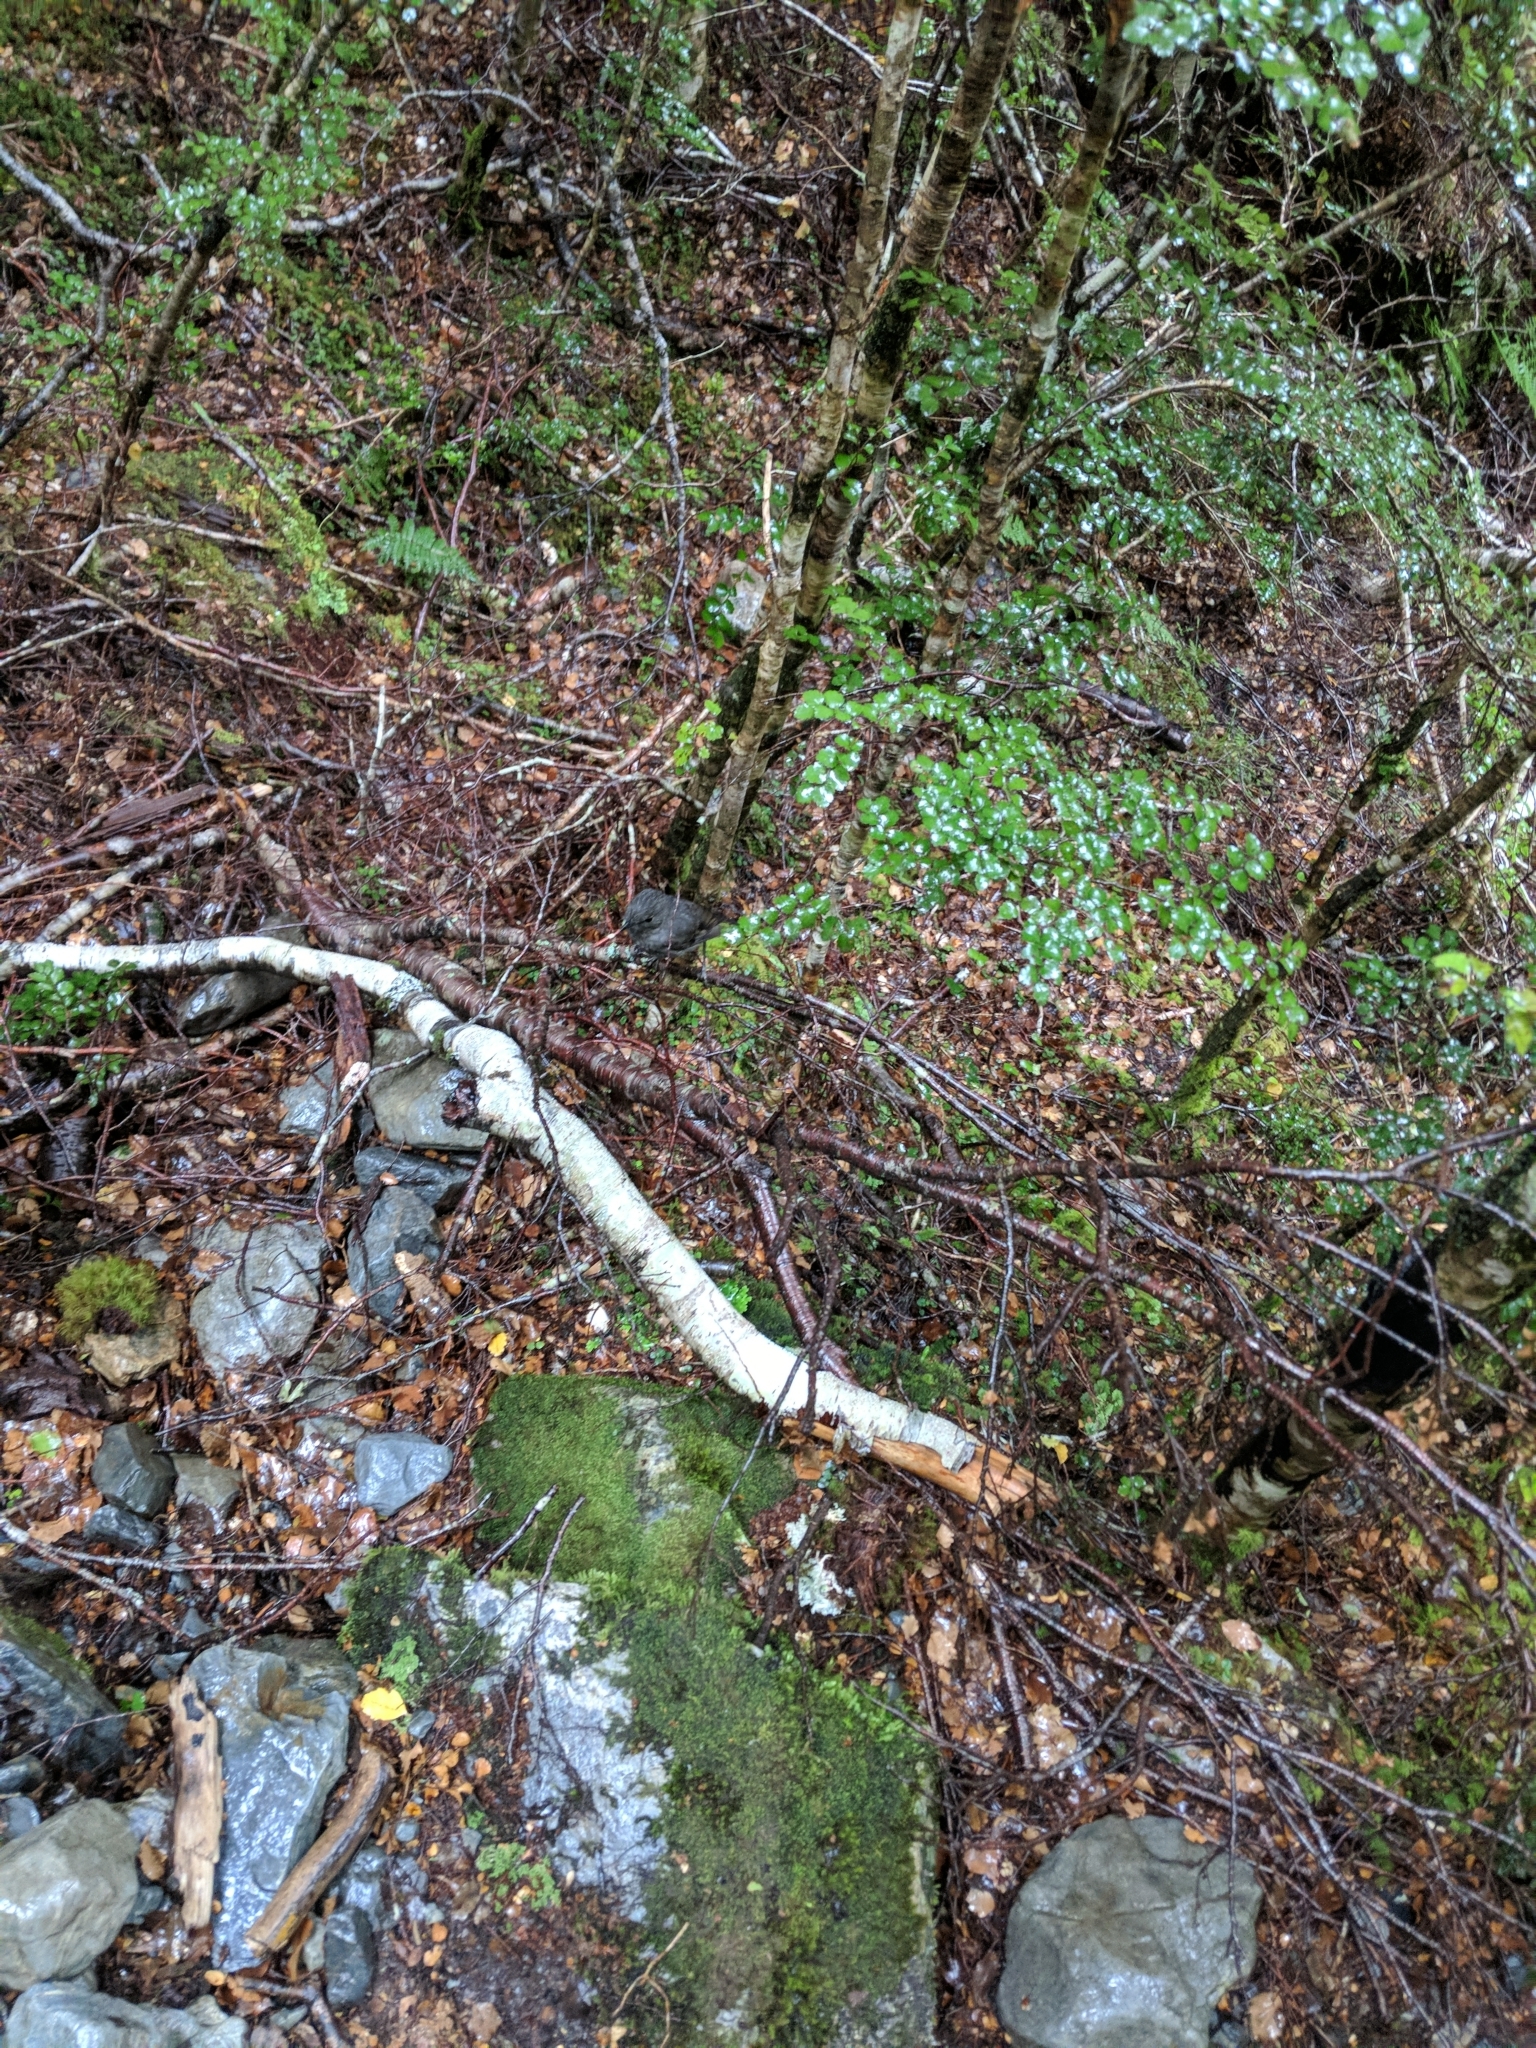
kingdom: Animalia
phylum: Chordata
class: Aves
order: Passeriformes
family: Petroicidae
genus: Petroica
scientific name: Petroica australis
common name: New zealand robin
